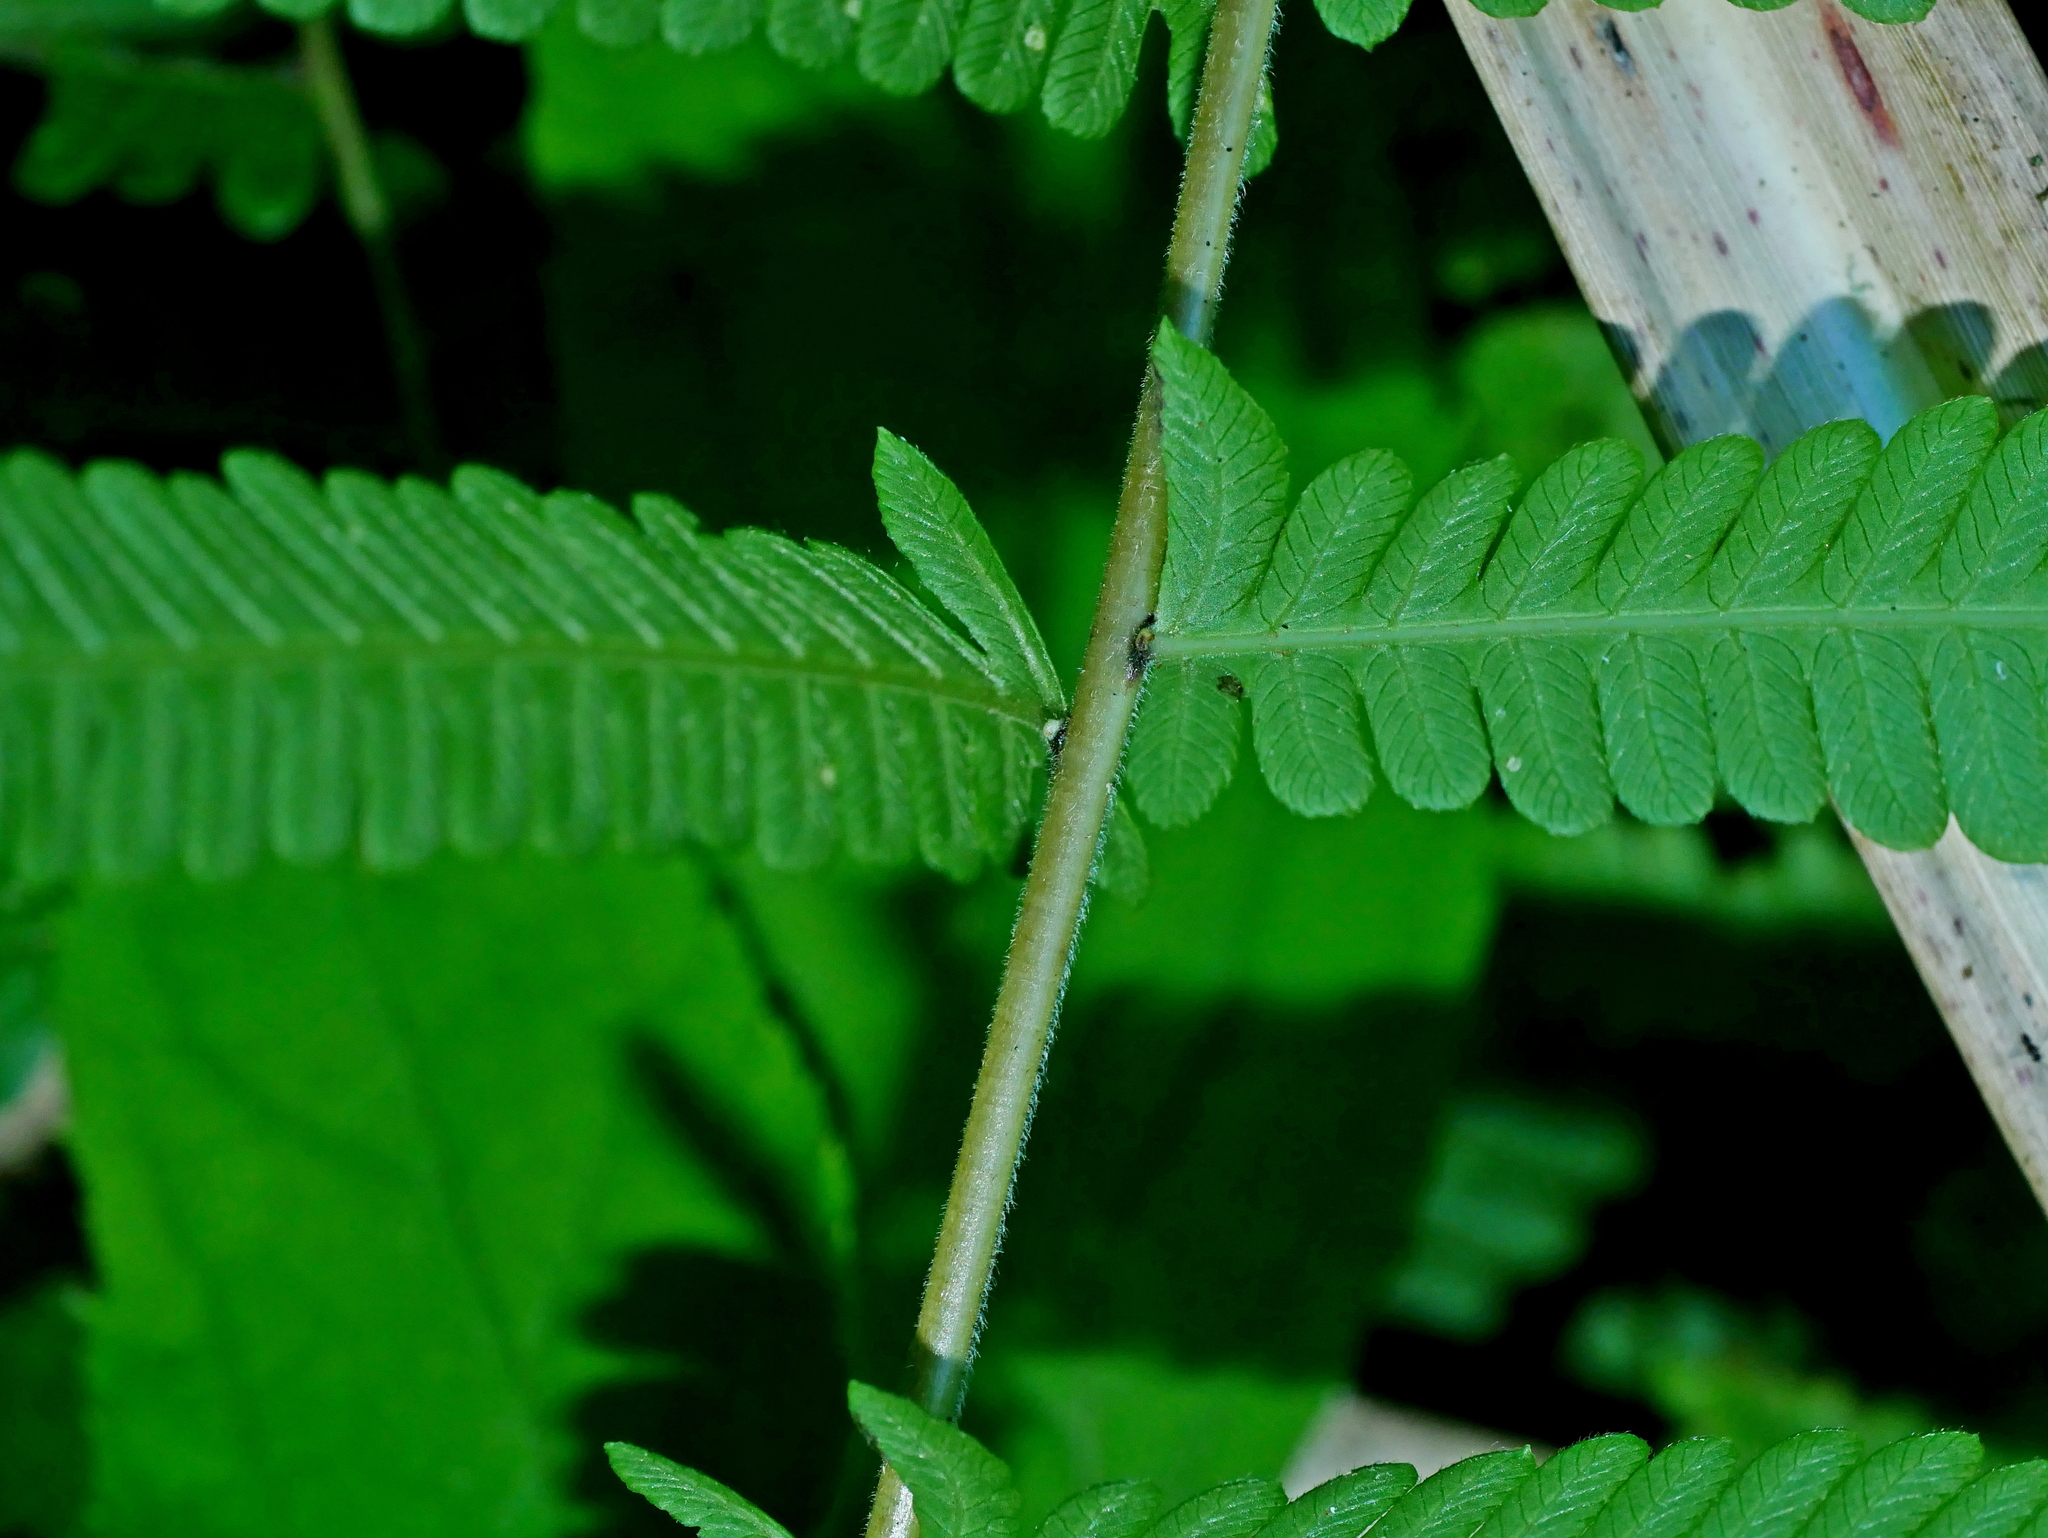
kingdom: Plantae
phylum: Tracheophyta
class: Polypodiopsida
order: Polypodiales
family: Thelypteridaceae
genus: Pseudocyclosorus
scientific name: Pseudocyclosorus esquirolii
